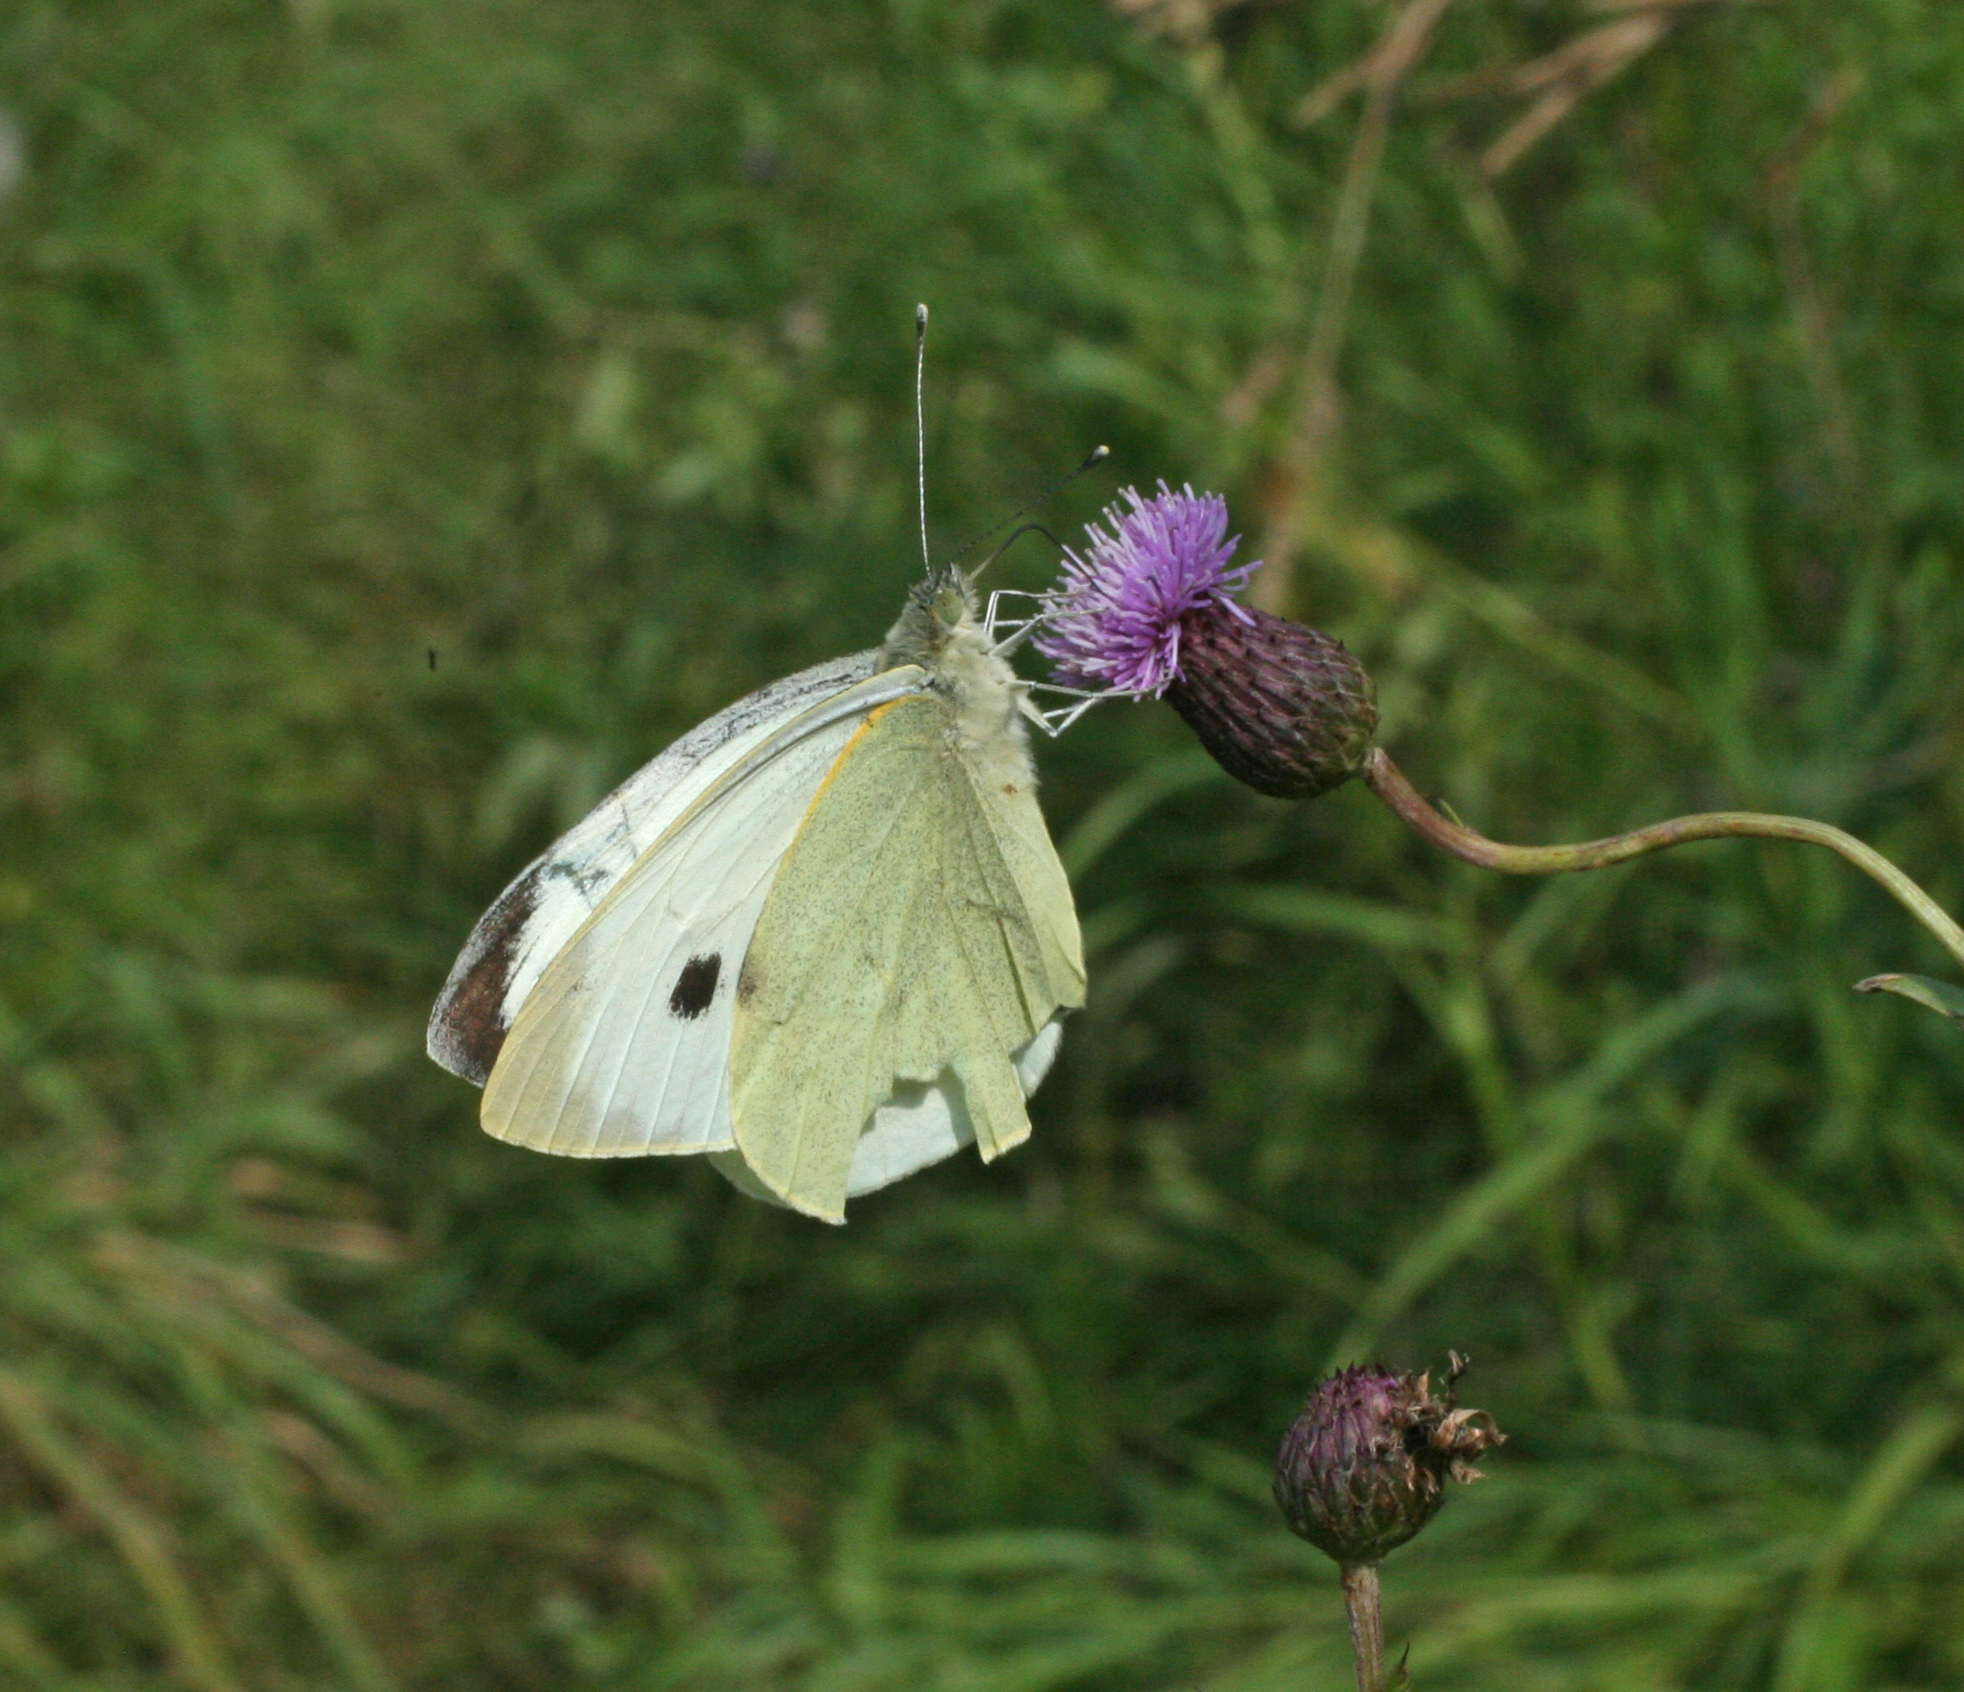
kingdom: Animalia
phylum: Arthropoda
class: Insecta
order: Lepidoptera
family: Pieridae
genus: Pieris
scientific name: Pieris brassicae
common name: Large white
